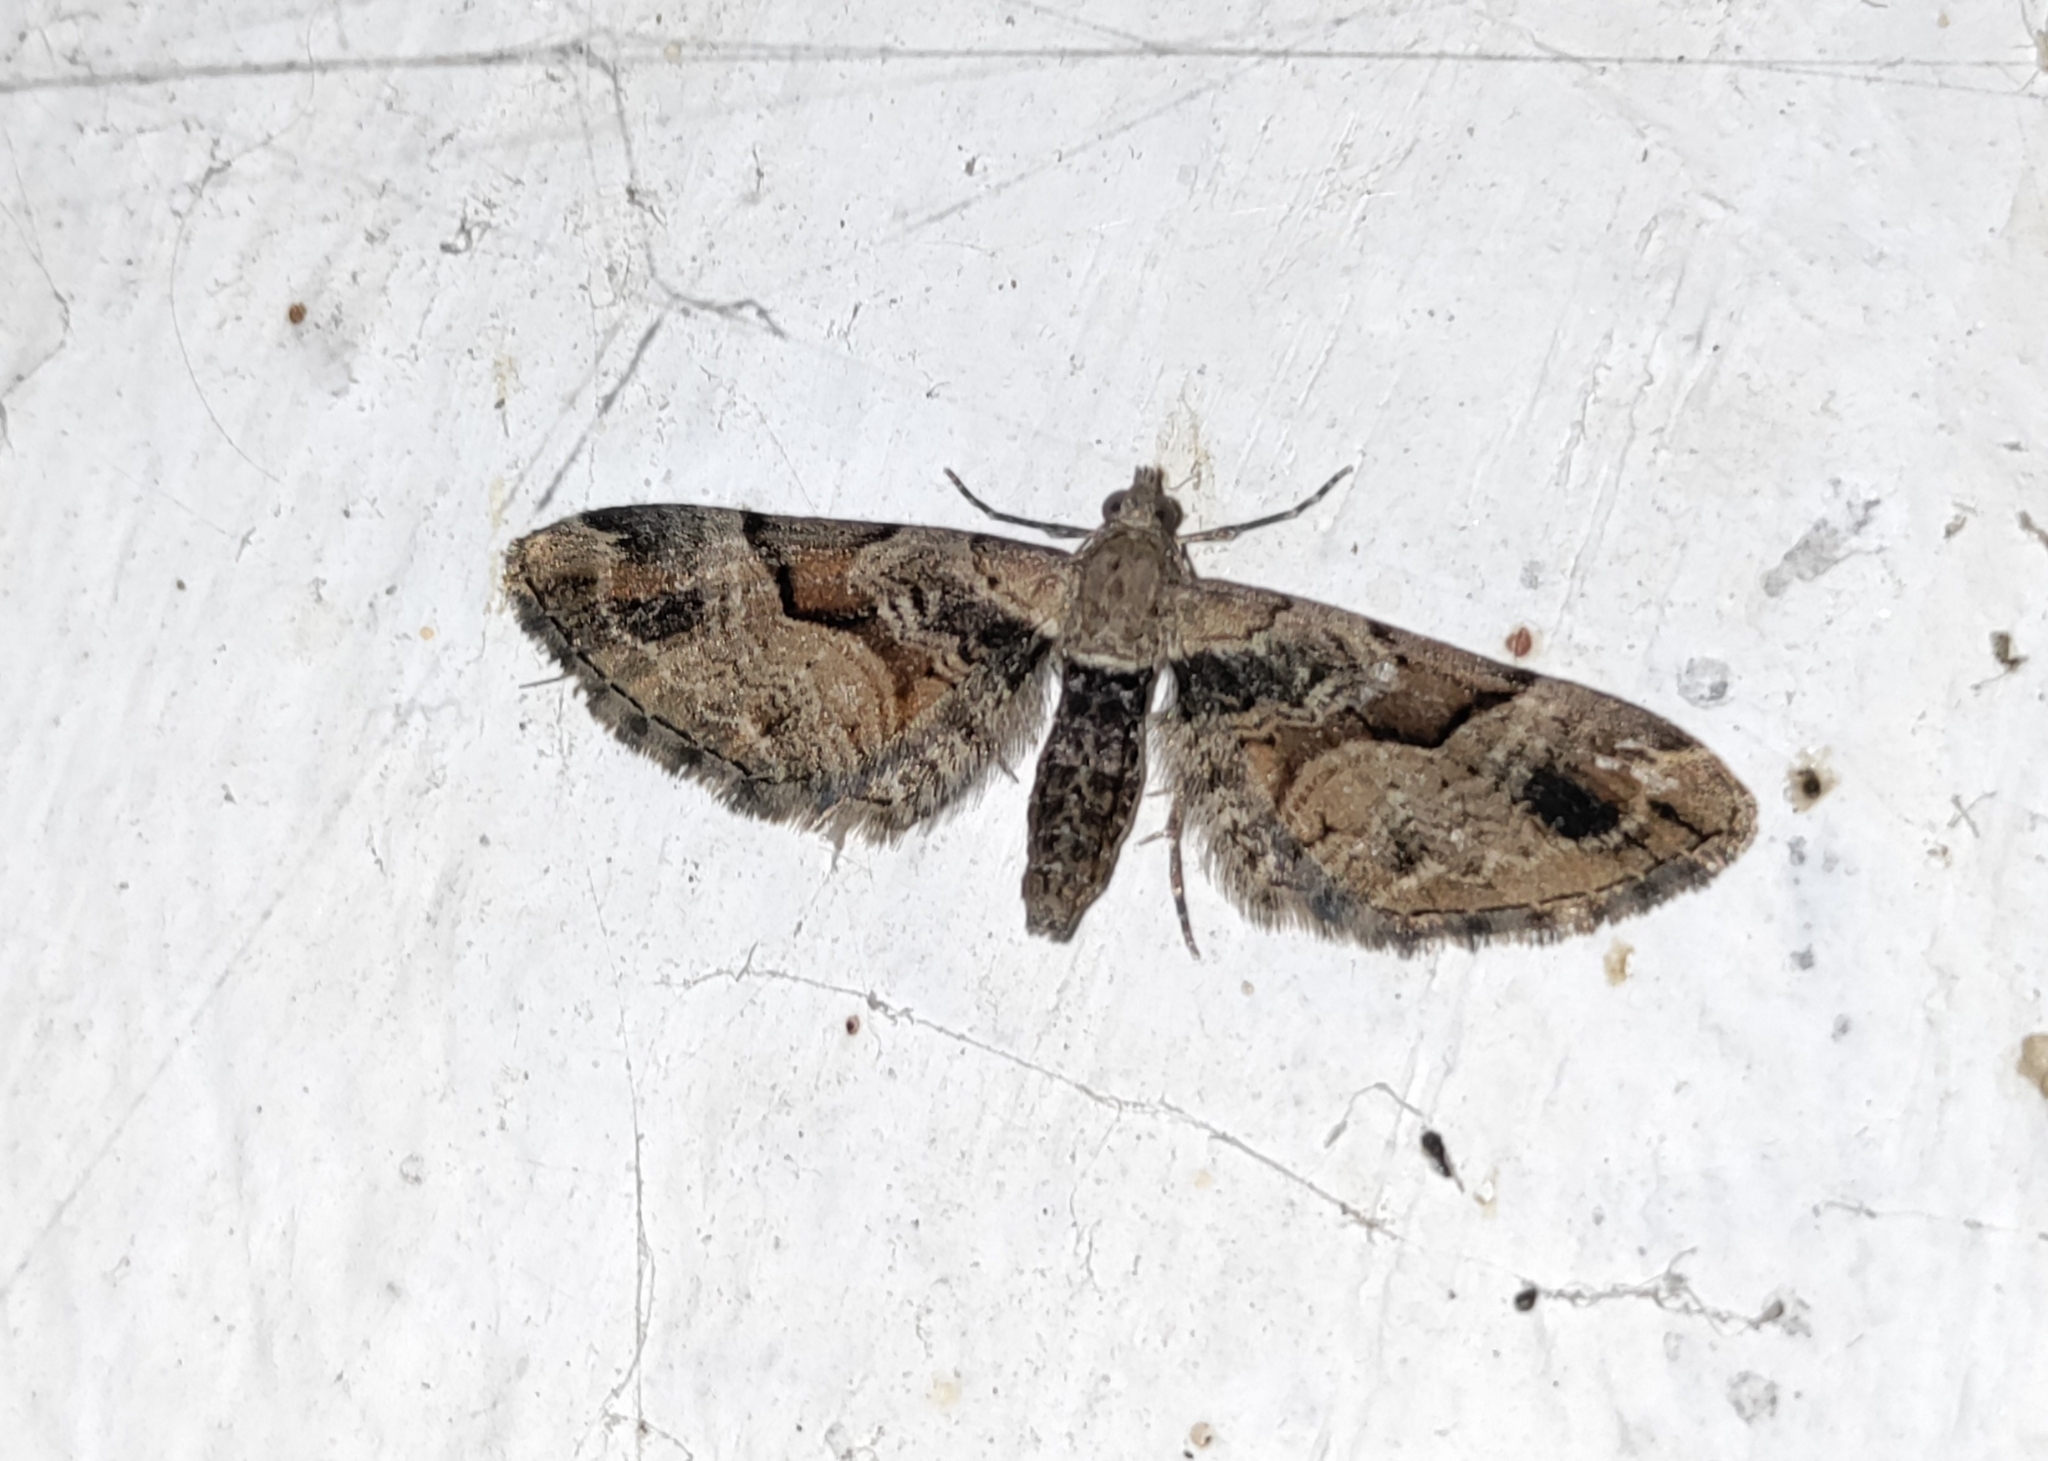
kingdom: Animalia
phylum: Arthropoda
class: Insecta
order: Lepidoptera
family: Geometridae
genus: Eupithecia
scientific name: Eupithecia sinuosaria
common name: Goosefoot pug
